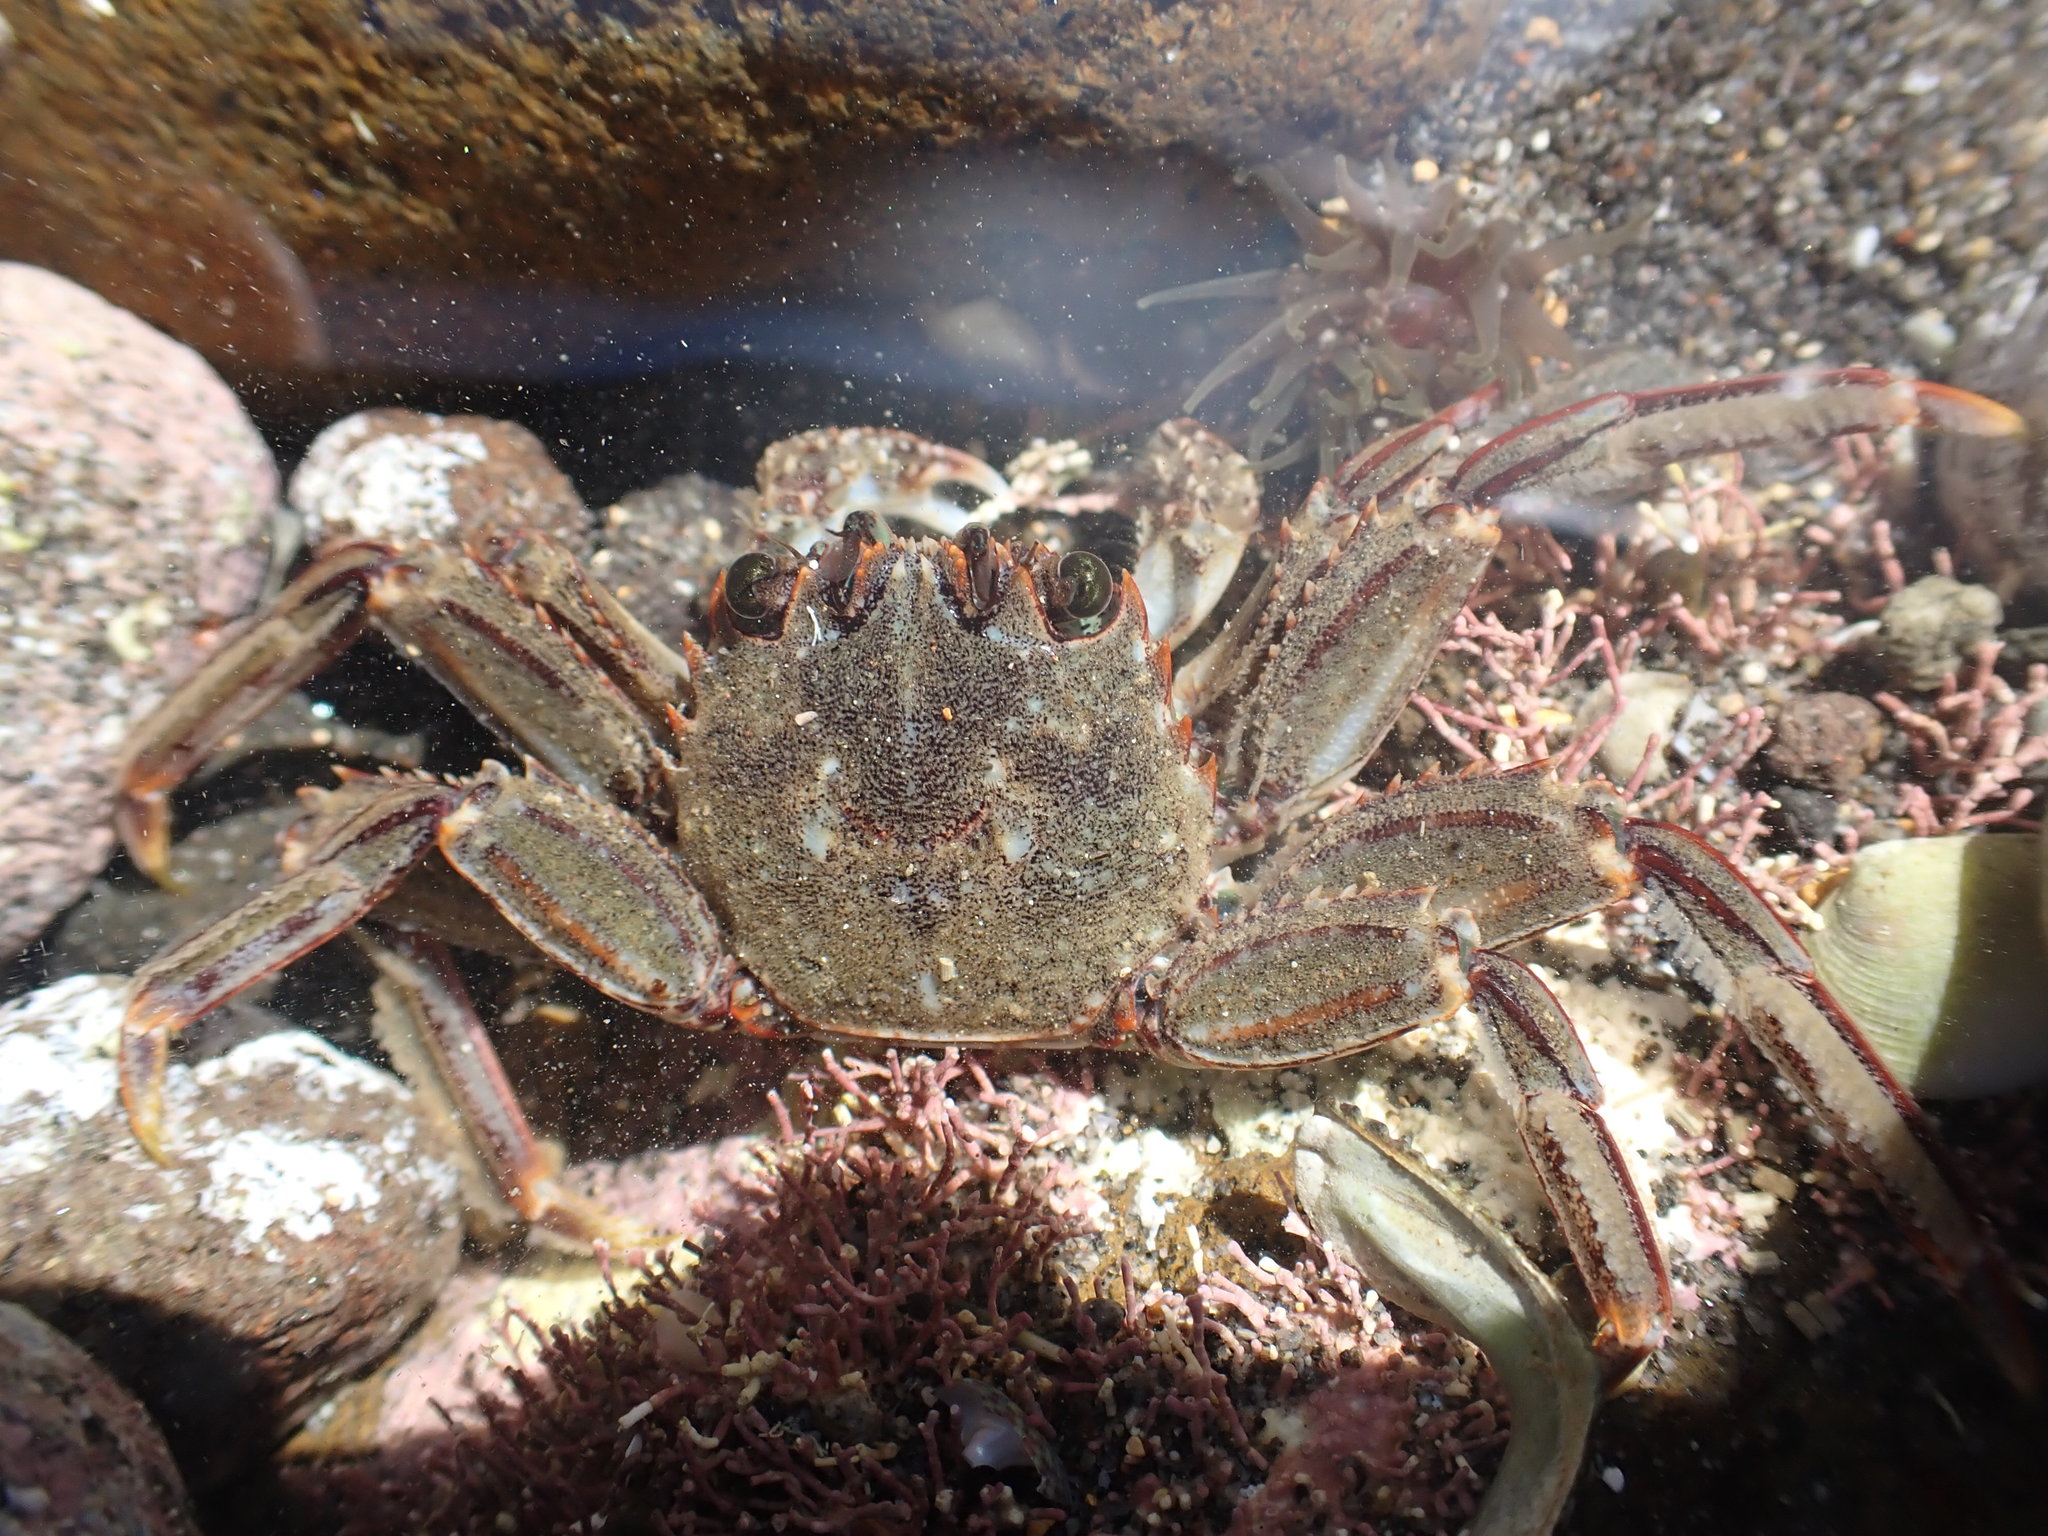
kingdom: Animalia
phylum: Arthropoda
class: Malacostraca
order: Decapoda
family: Plagusiidae
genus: Guinusia
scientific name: Guinusia chabrus
